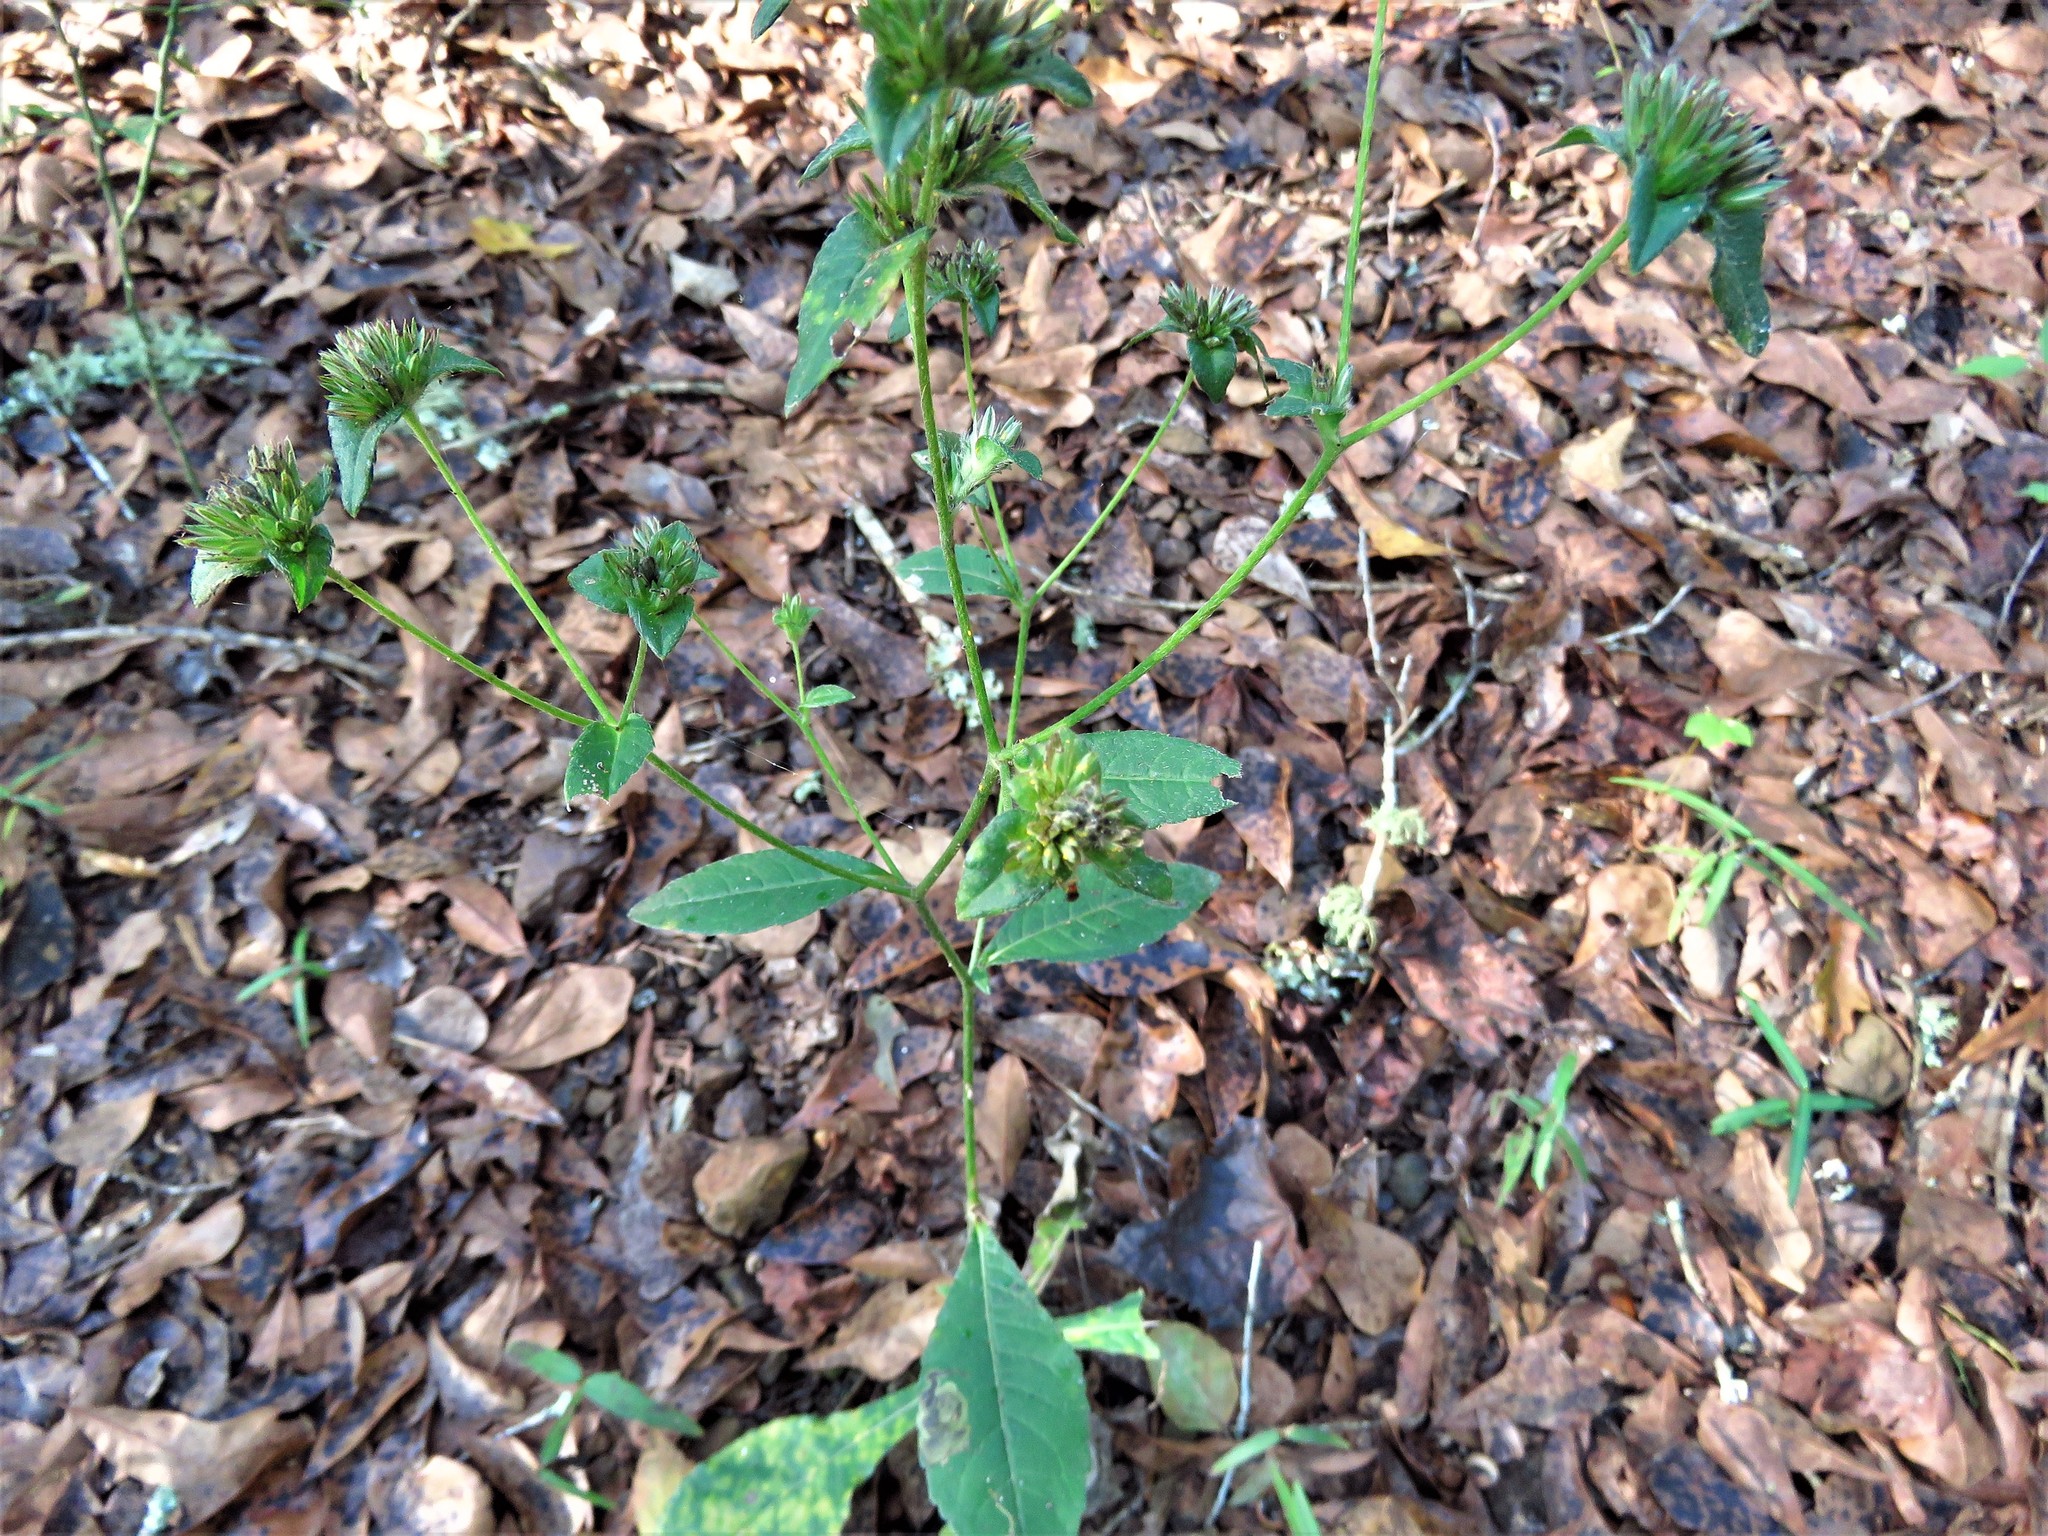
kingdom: Plantae
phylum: Tracheophyta
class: Magnoliopsida
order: Asterales
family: Asteraceae
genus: Elephantopus
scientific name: Elephantopus carolinianus
